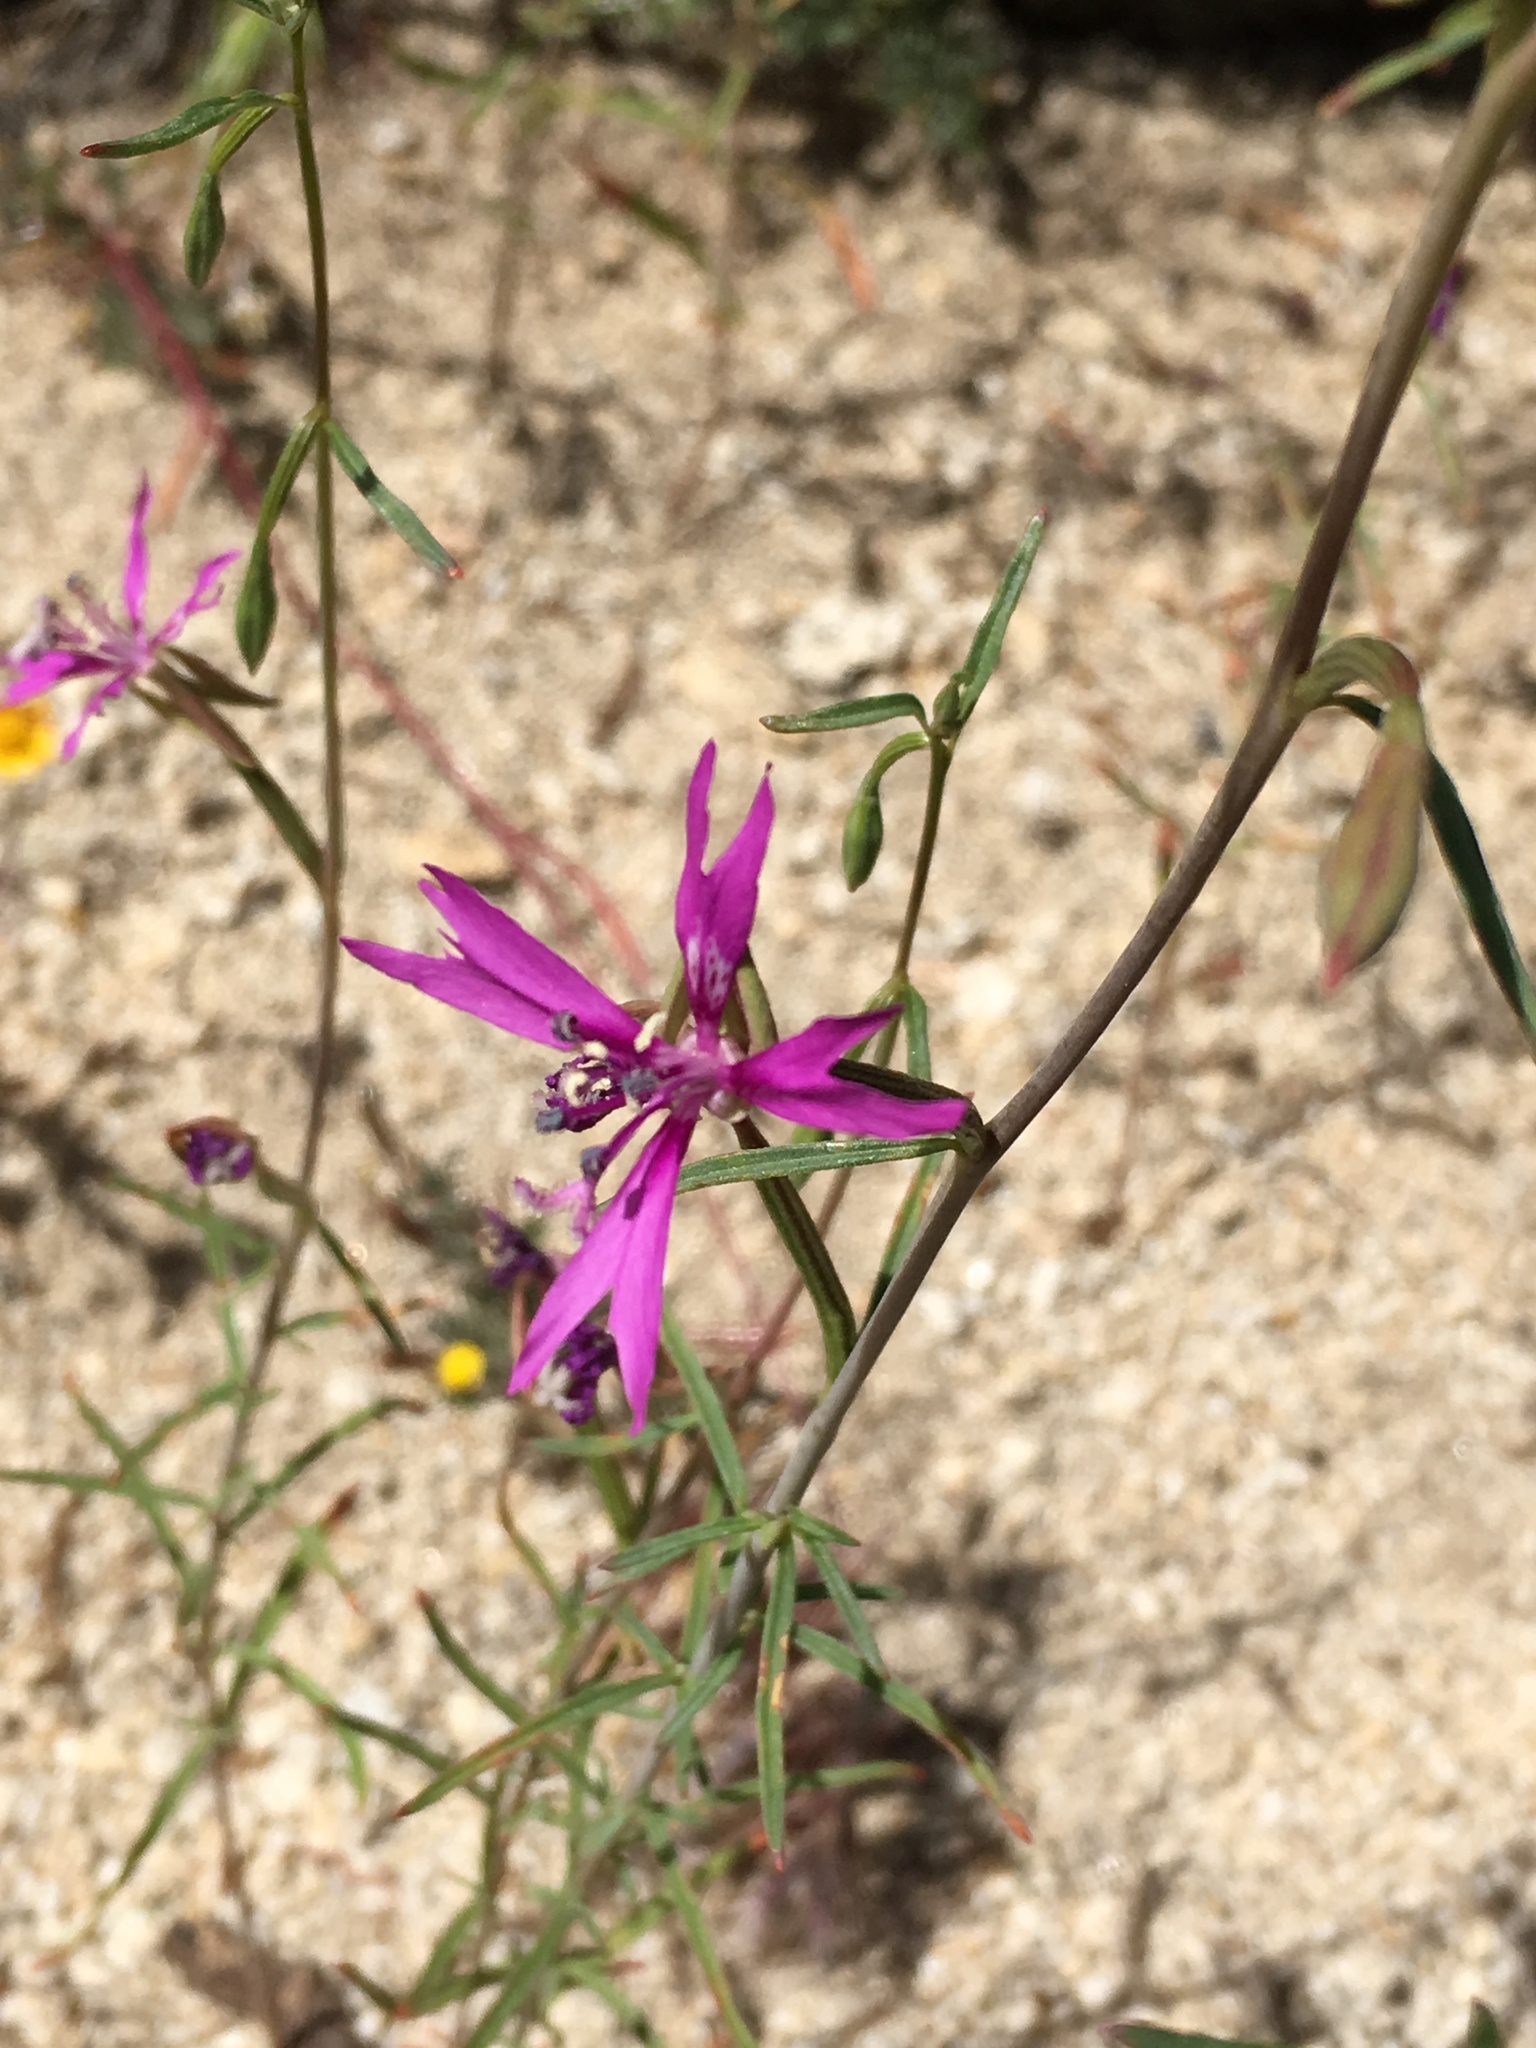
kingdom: Plantae
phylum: Tracheophyta
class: Magnoliopsida
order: Myrtales
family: Onagraceae
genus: Clarkia
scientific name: Clarkia xantiana
